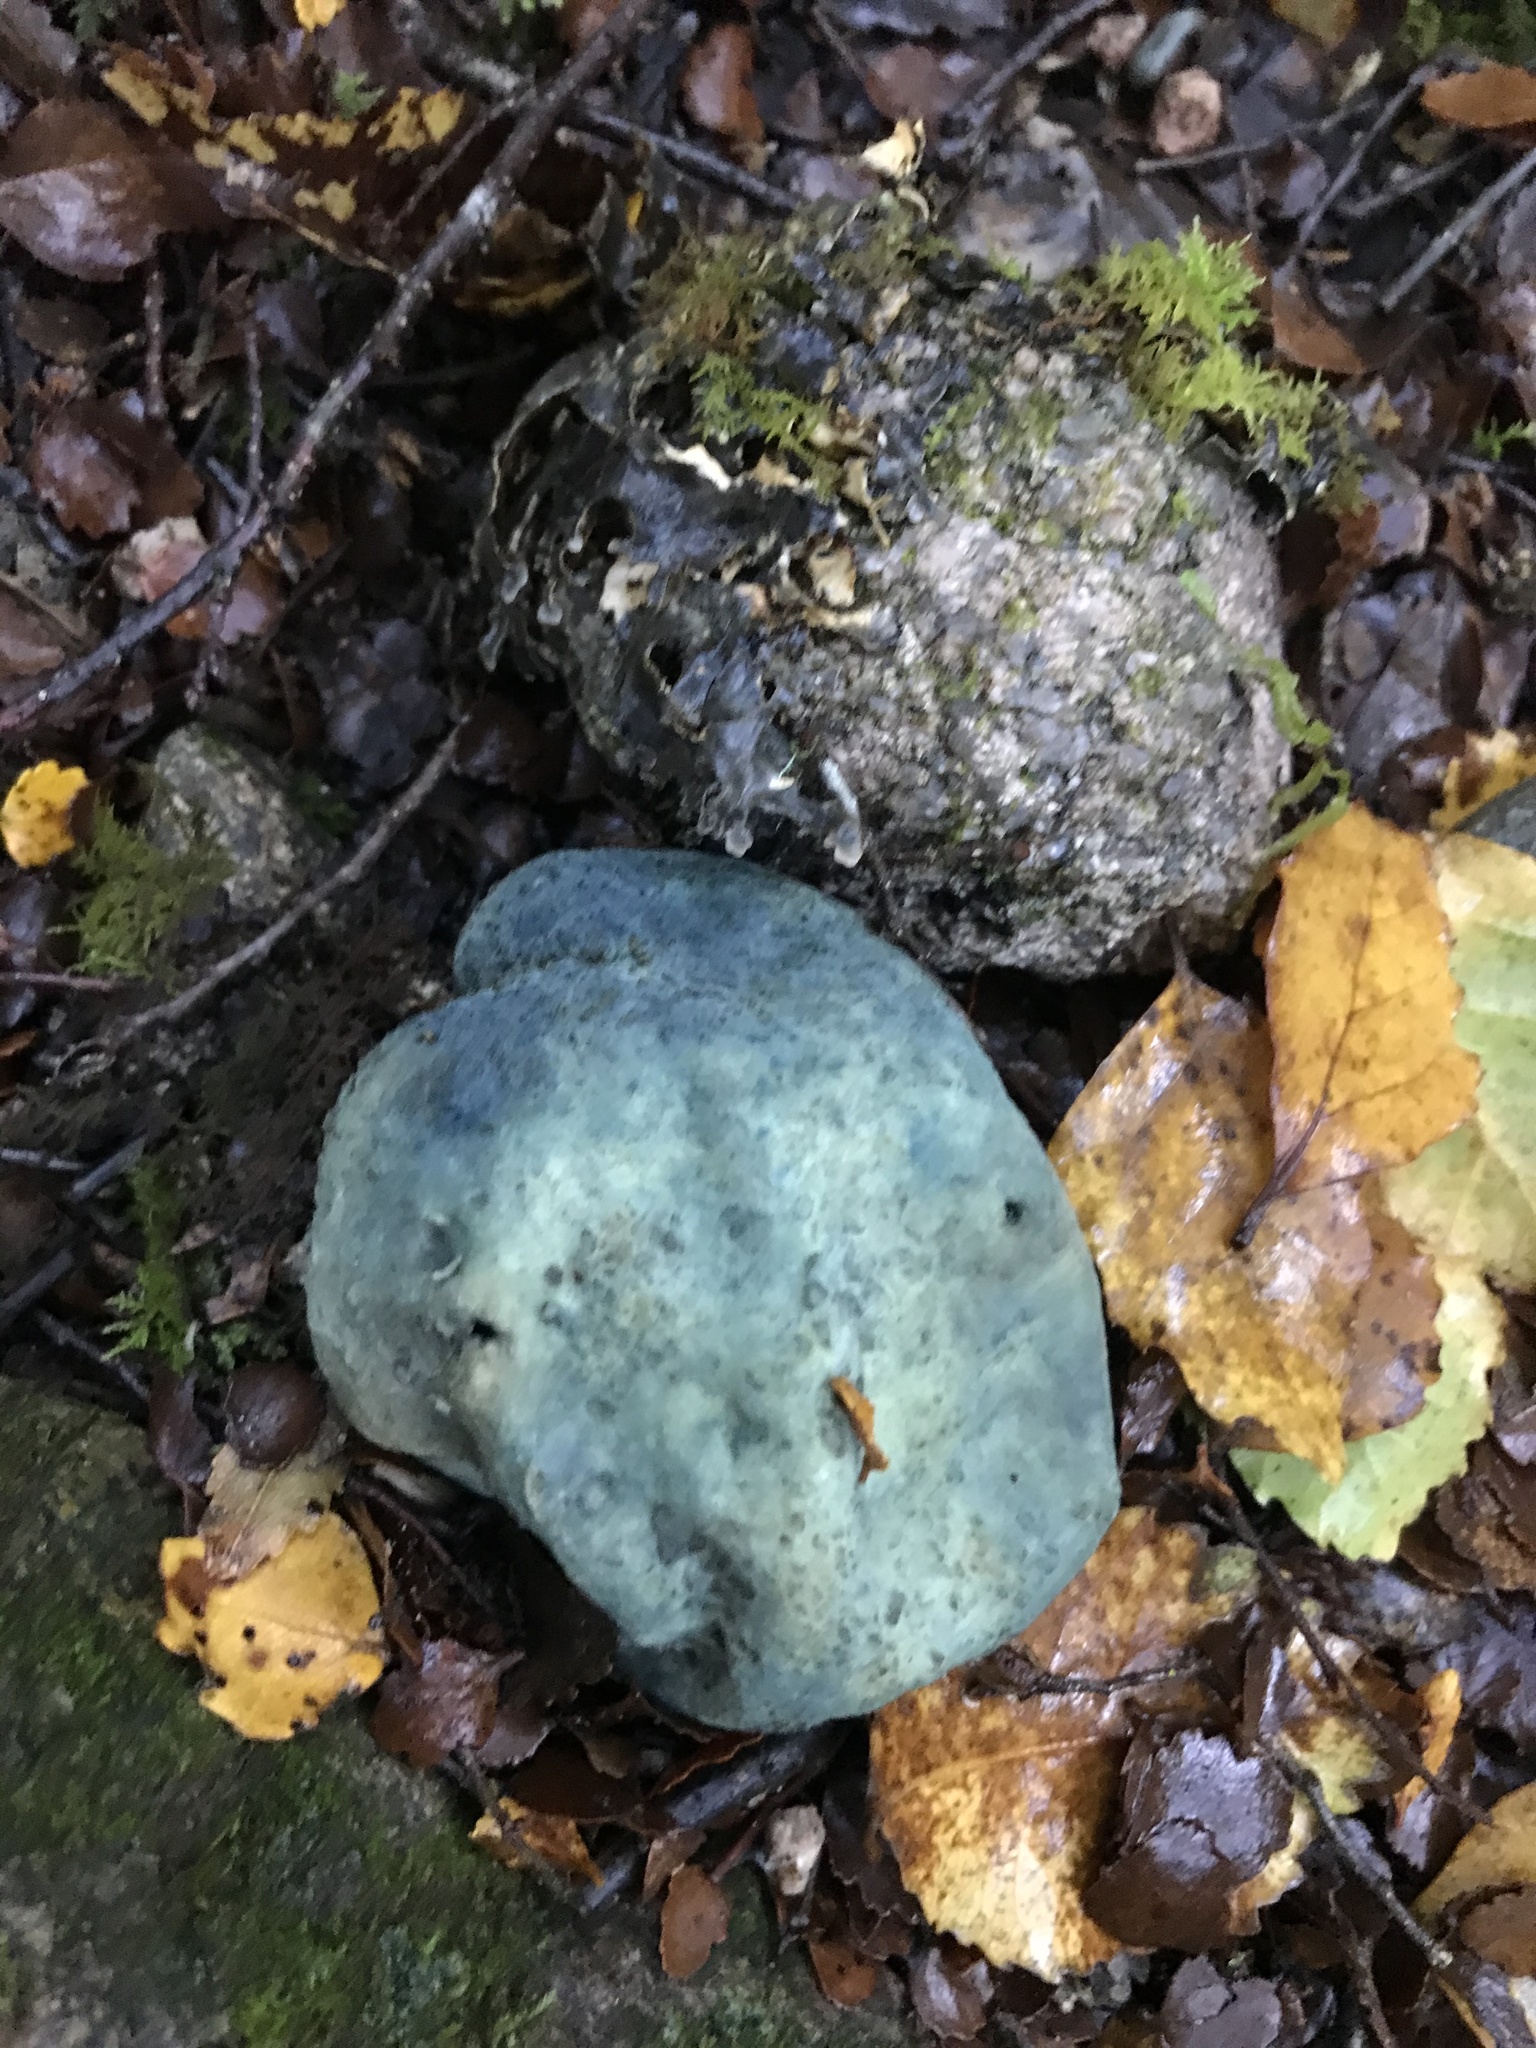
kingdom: Fungi
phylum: Basidiomycota
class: Agaricomycetes
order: Boletales
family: Boletaceae
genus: Leccinum
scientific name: Leccinum pachyderme
